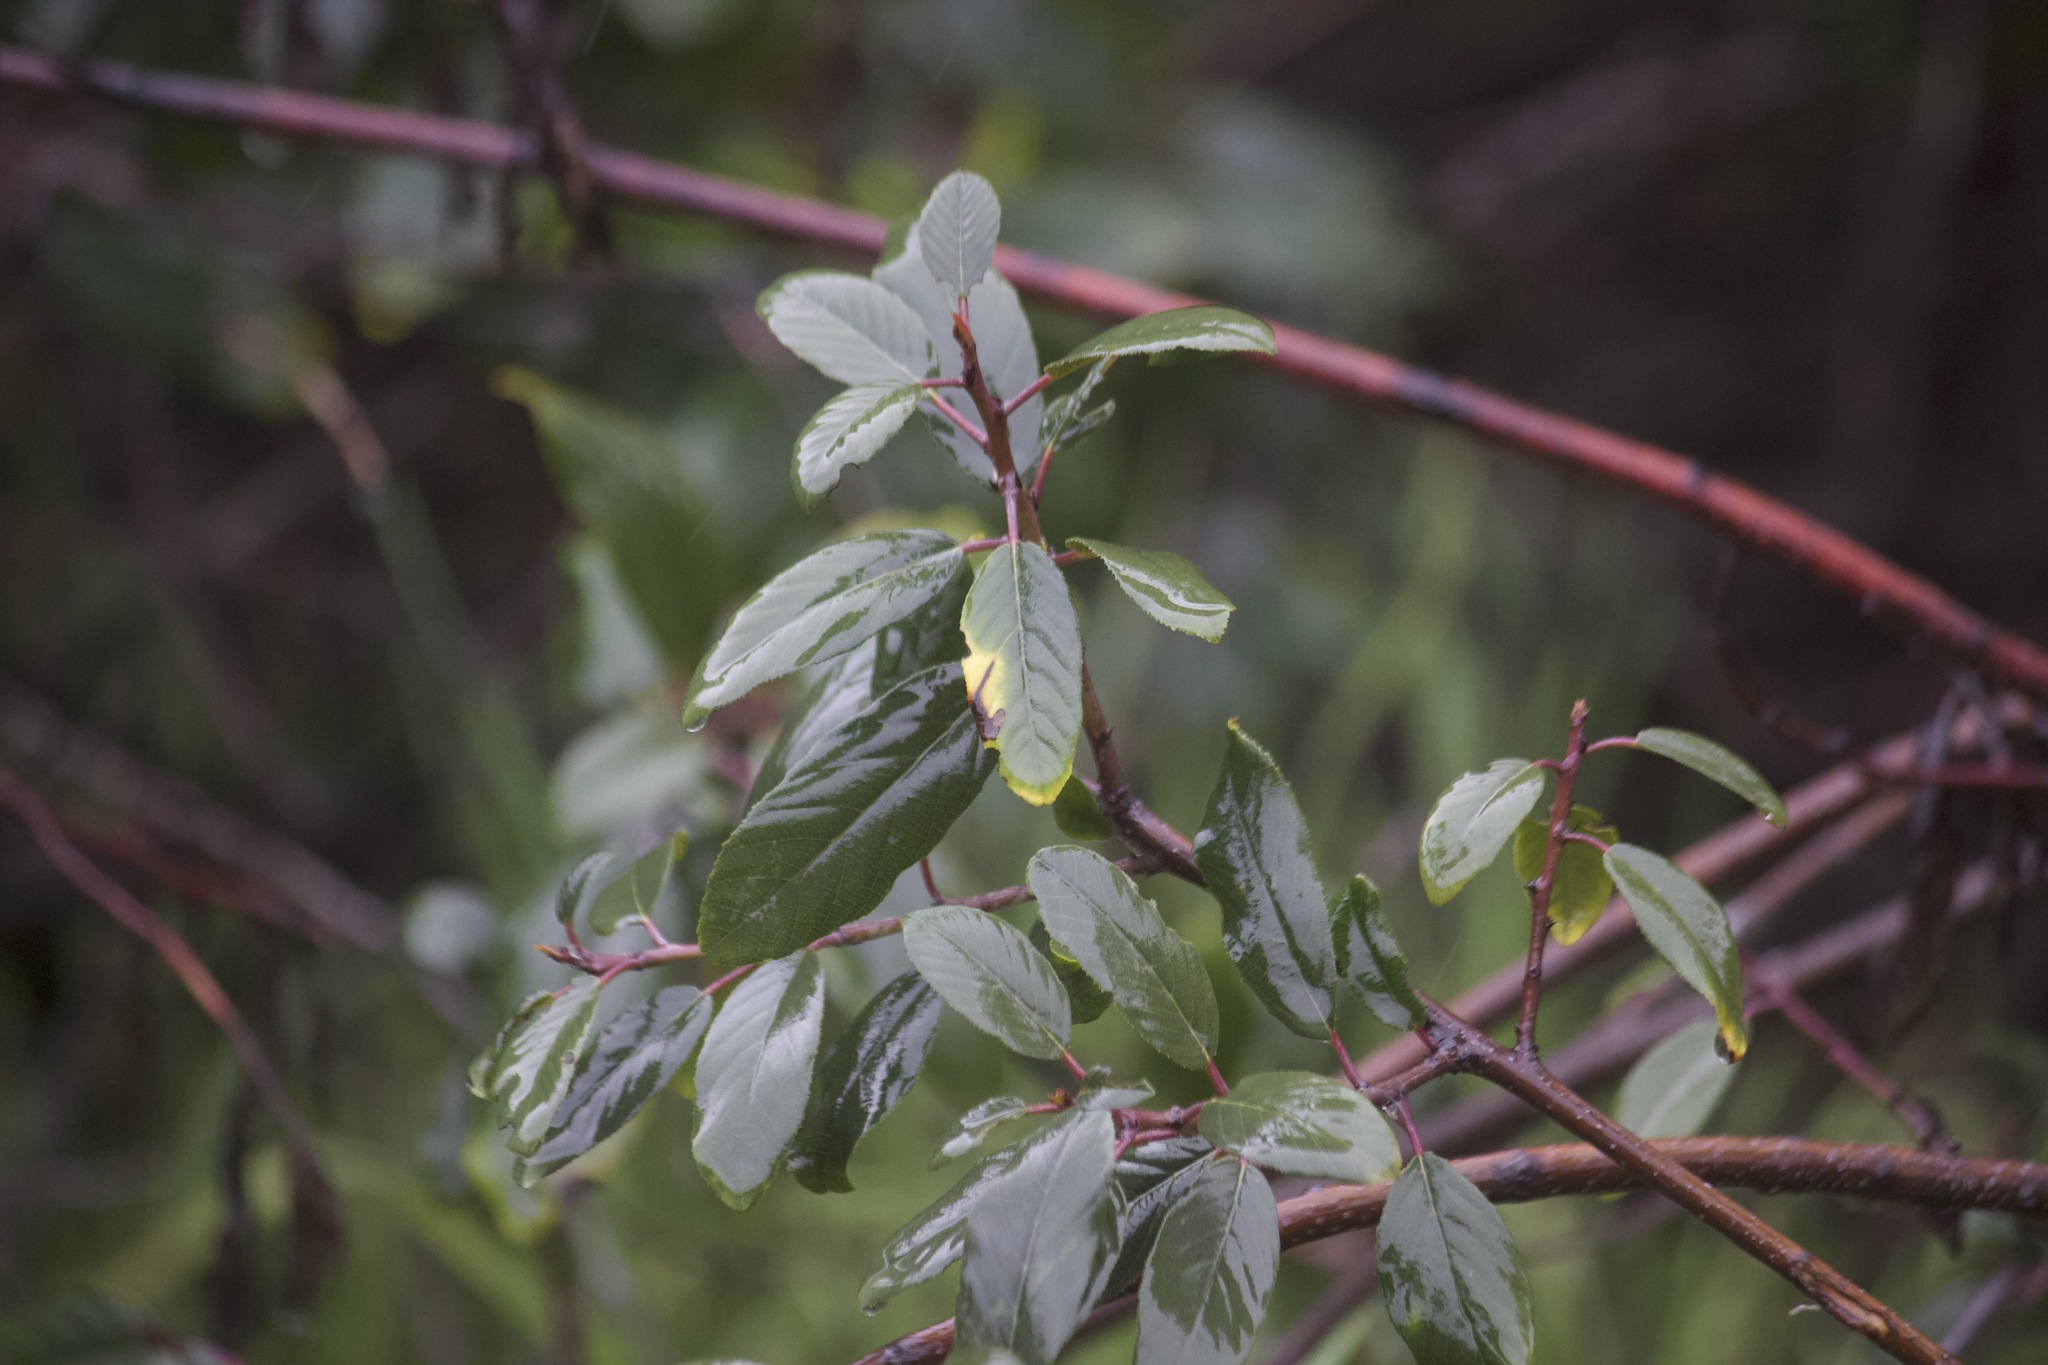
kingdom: Plantae
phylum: Tracheophyta
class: Magnoliopsida
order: Rosales
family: Rhamnaceae
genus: Frangula
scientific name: Frangula californica
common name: California buckthorn
